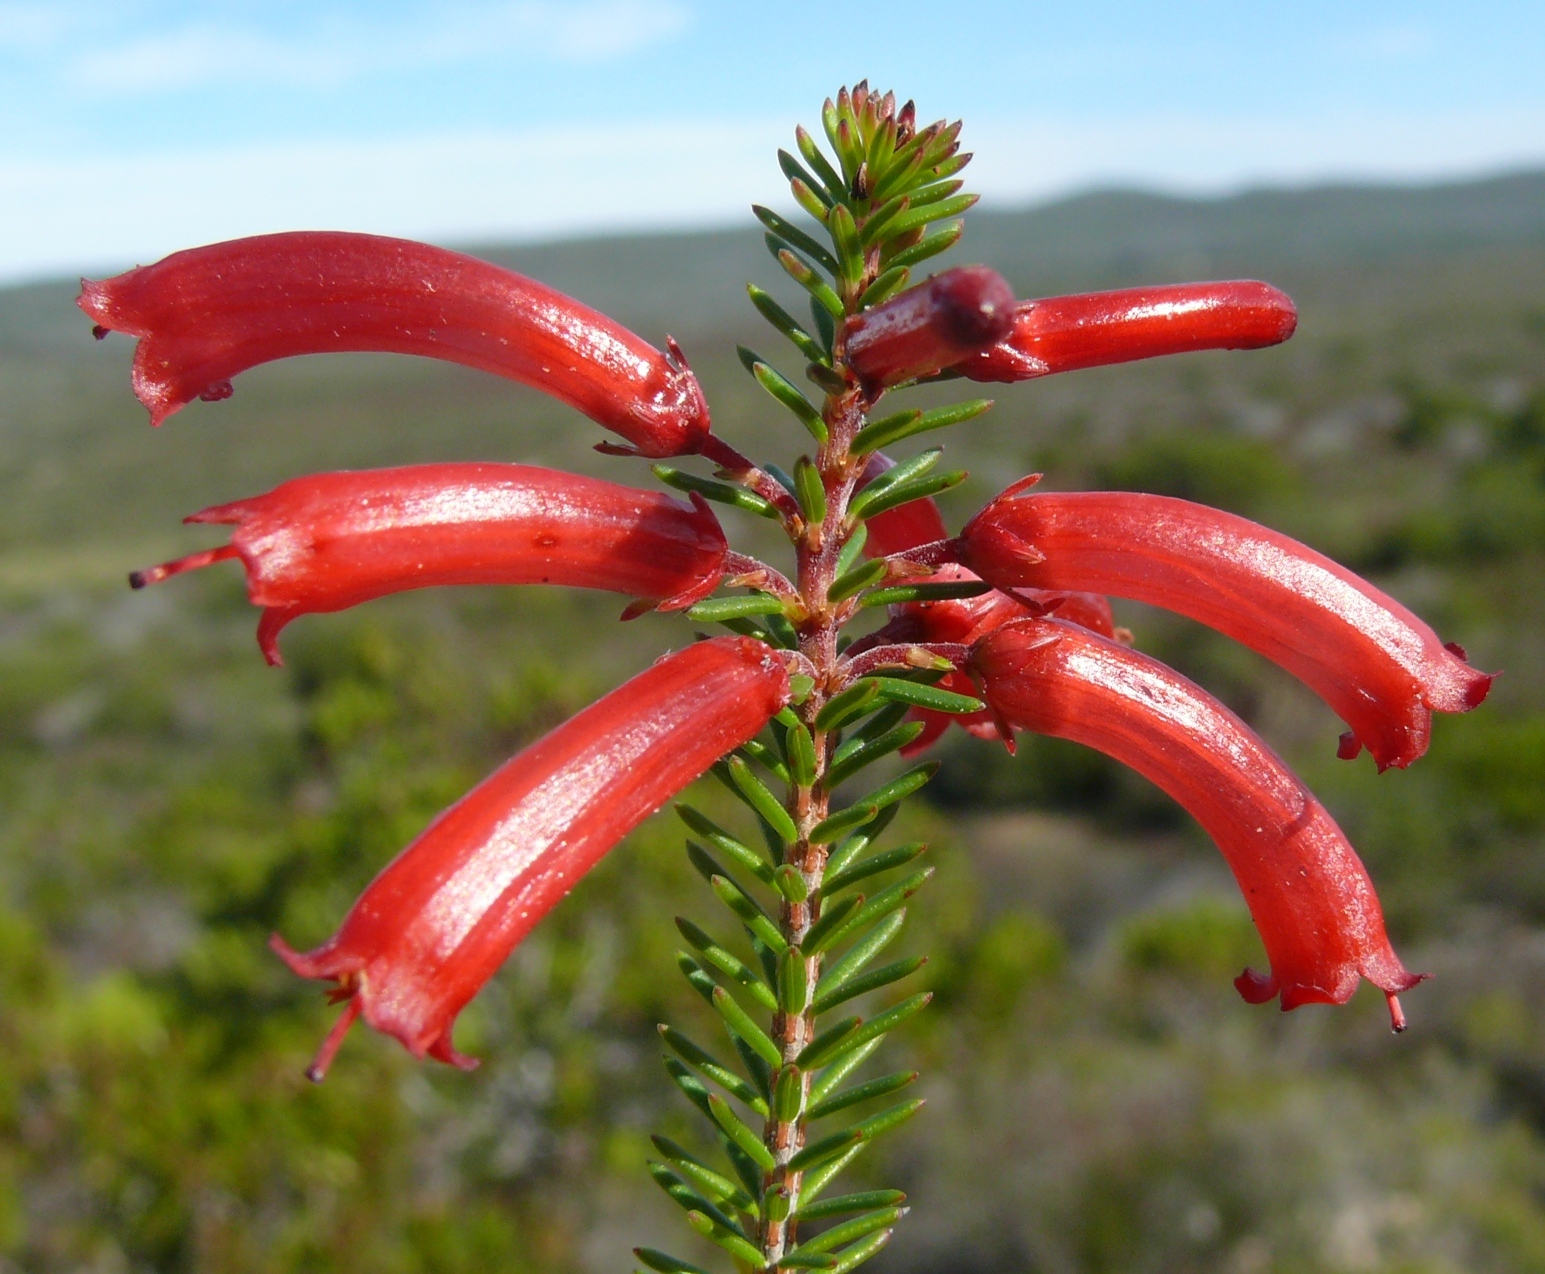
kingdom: Plantae
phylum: Tracheophyta
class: Magnoliopsida
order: Ericales
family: Ericaceae
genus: Erica
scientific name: Erica regia
